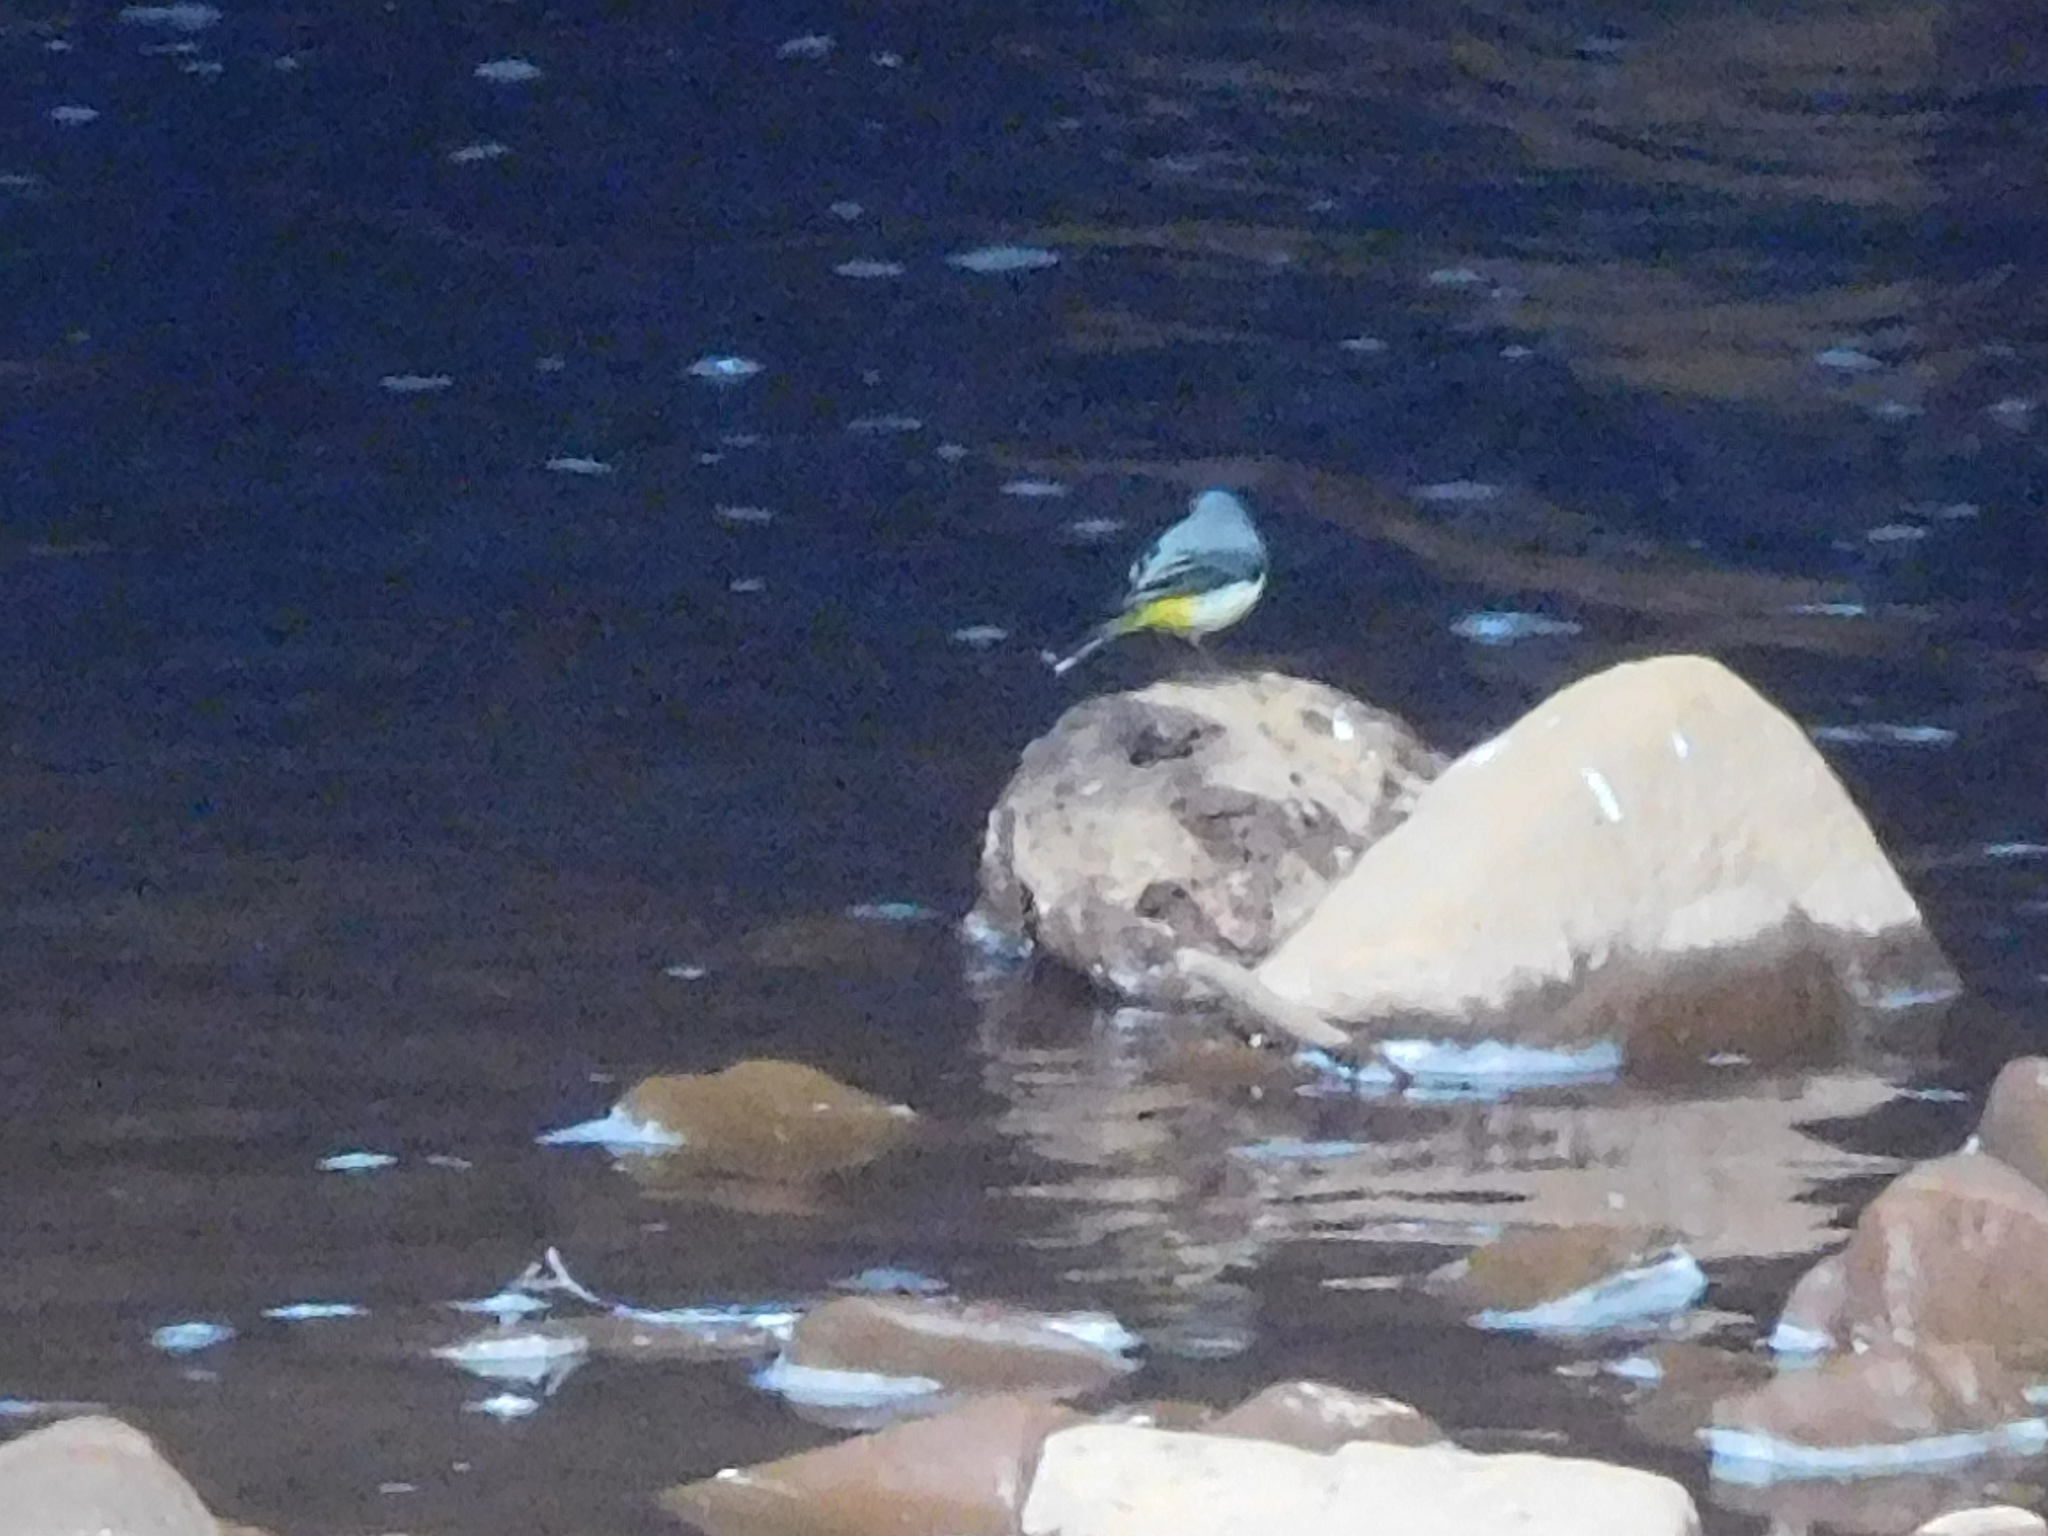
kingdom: Animalia
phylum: Chordata
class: Aves
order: Passeriformes
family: Motacillidae
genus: Motacilla
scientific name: Motacilla cinerea
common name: Grey wagtail
